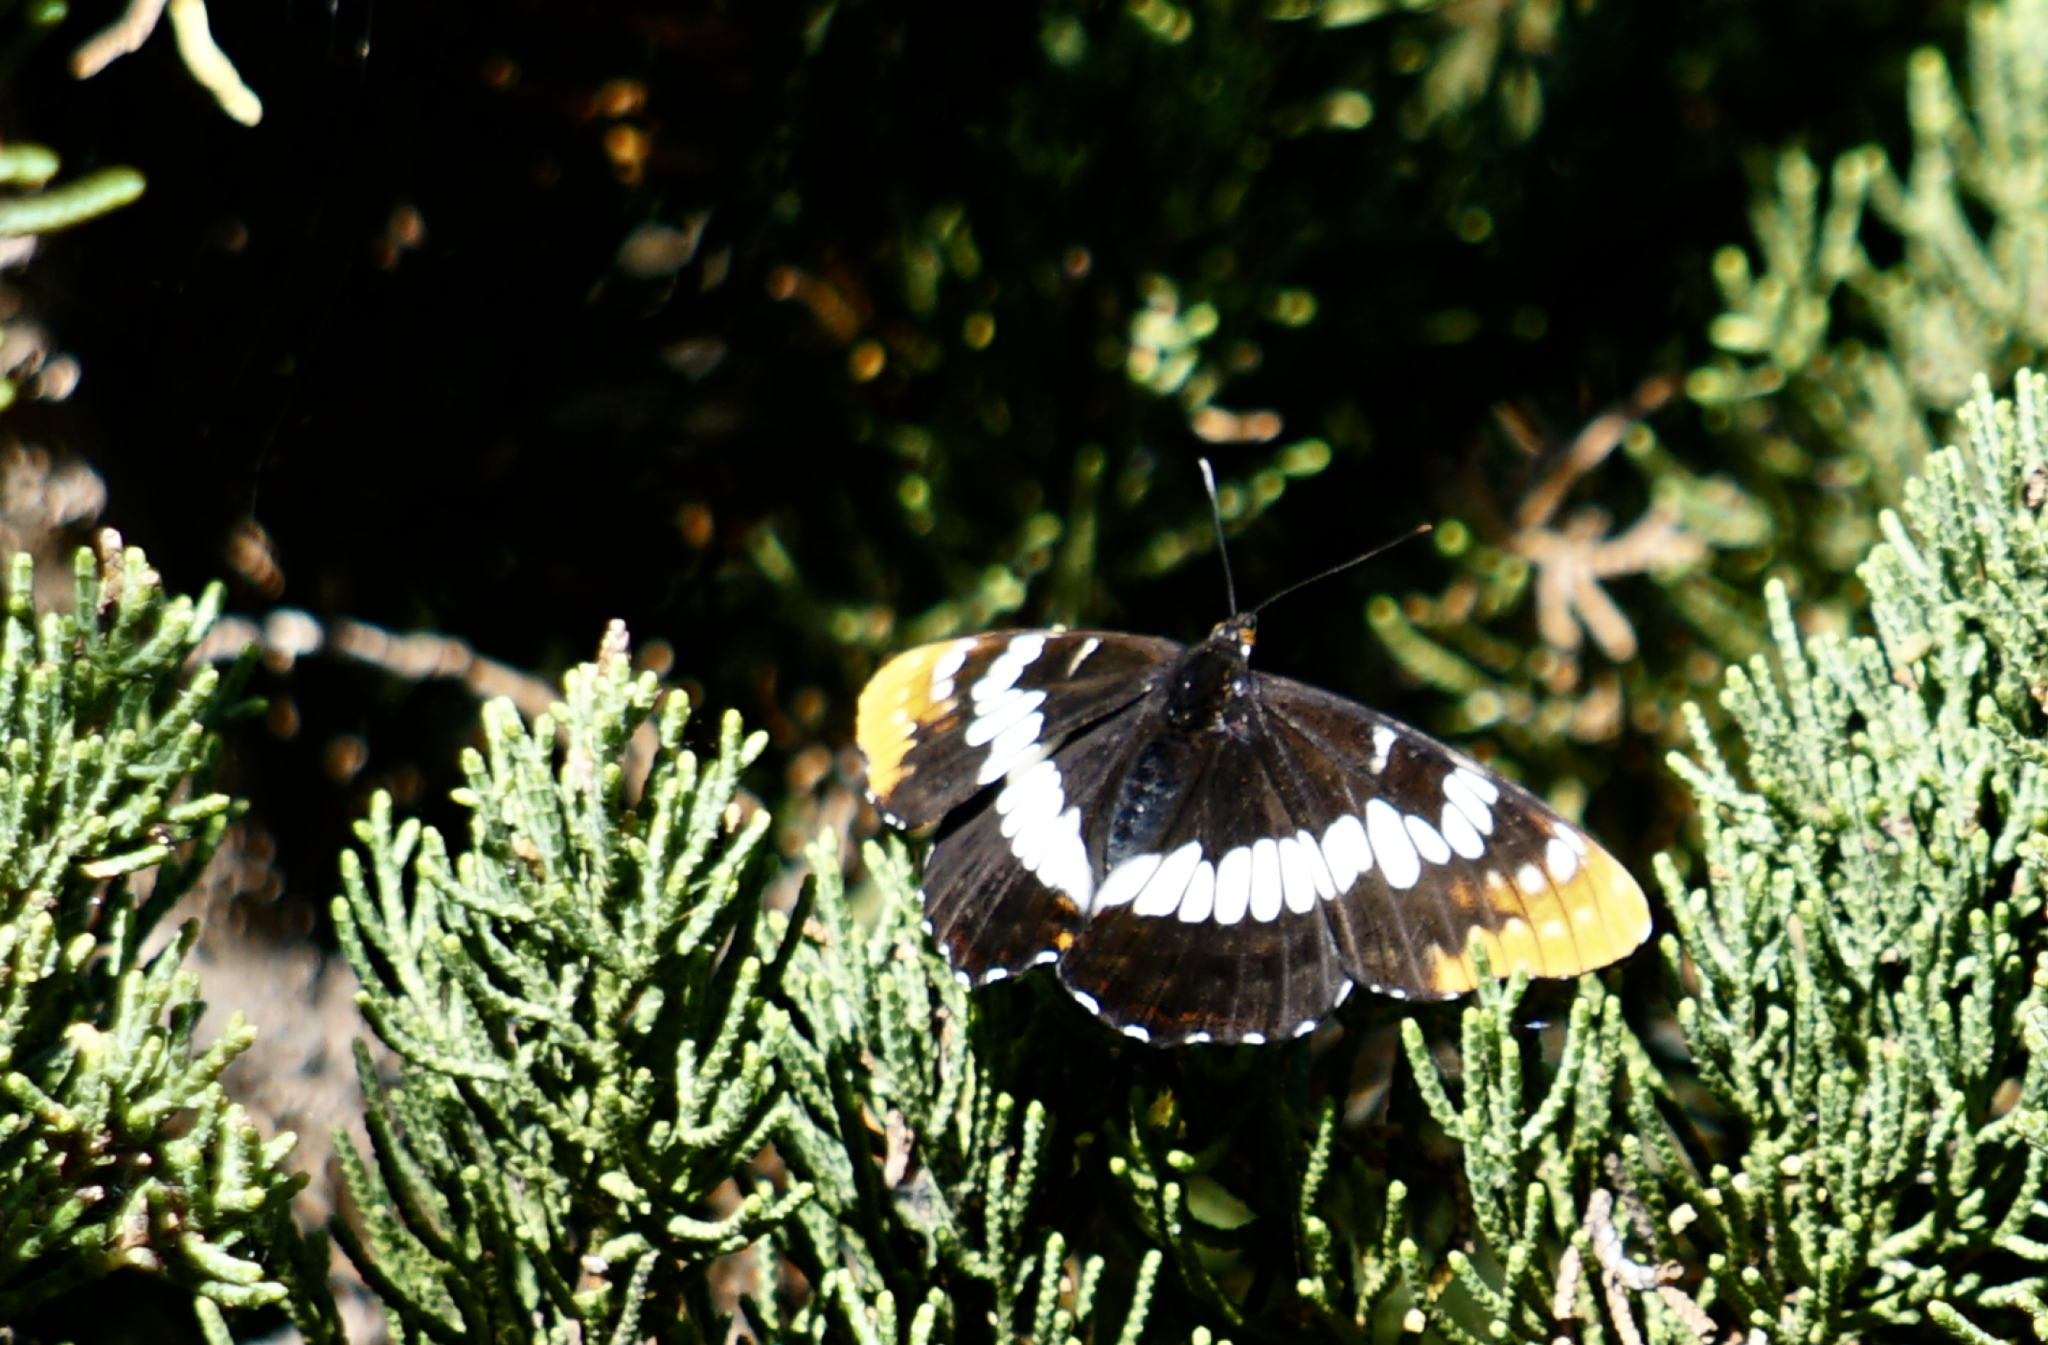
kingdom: Animalia
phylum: Arthropoda
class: Insecta
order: Lepidoptera
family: Nymphalidae
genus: Limenitis
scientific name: Limenitis lorquini
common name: Lorquin's admiral
